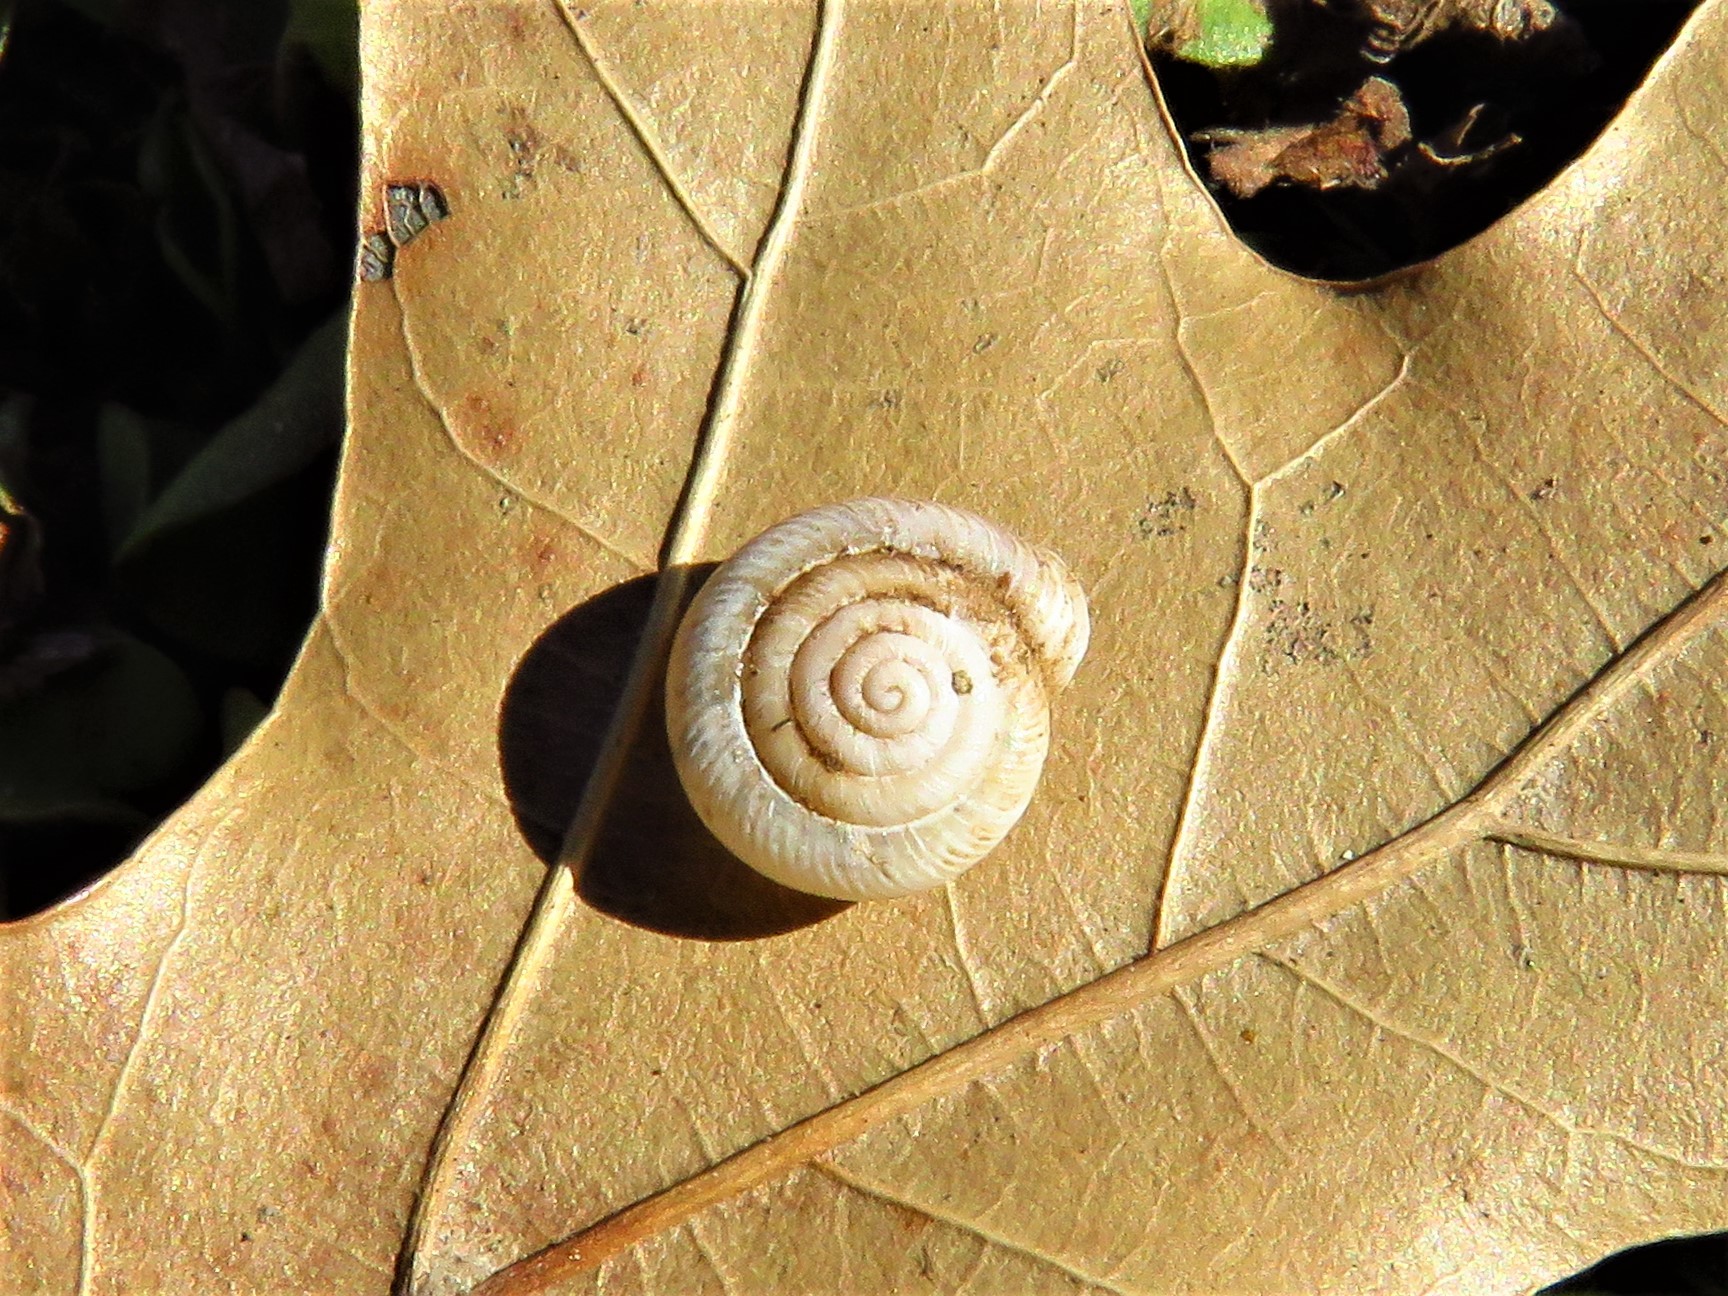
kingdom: Animalia
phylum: Mollusca
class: Gastropoda
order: Stylommatophora
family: Polygyridae
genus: Linisa
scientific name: Linisa texasiana
